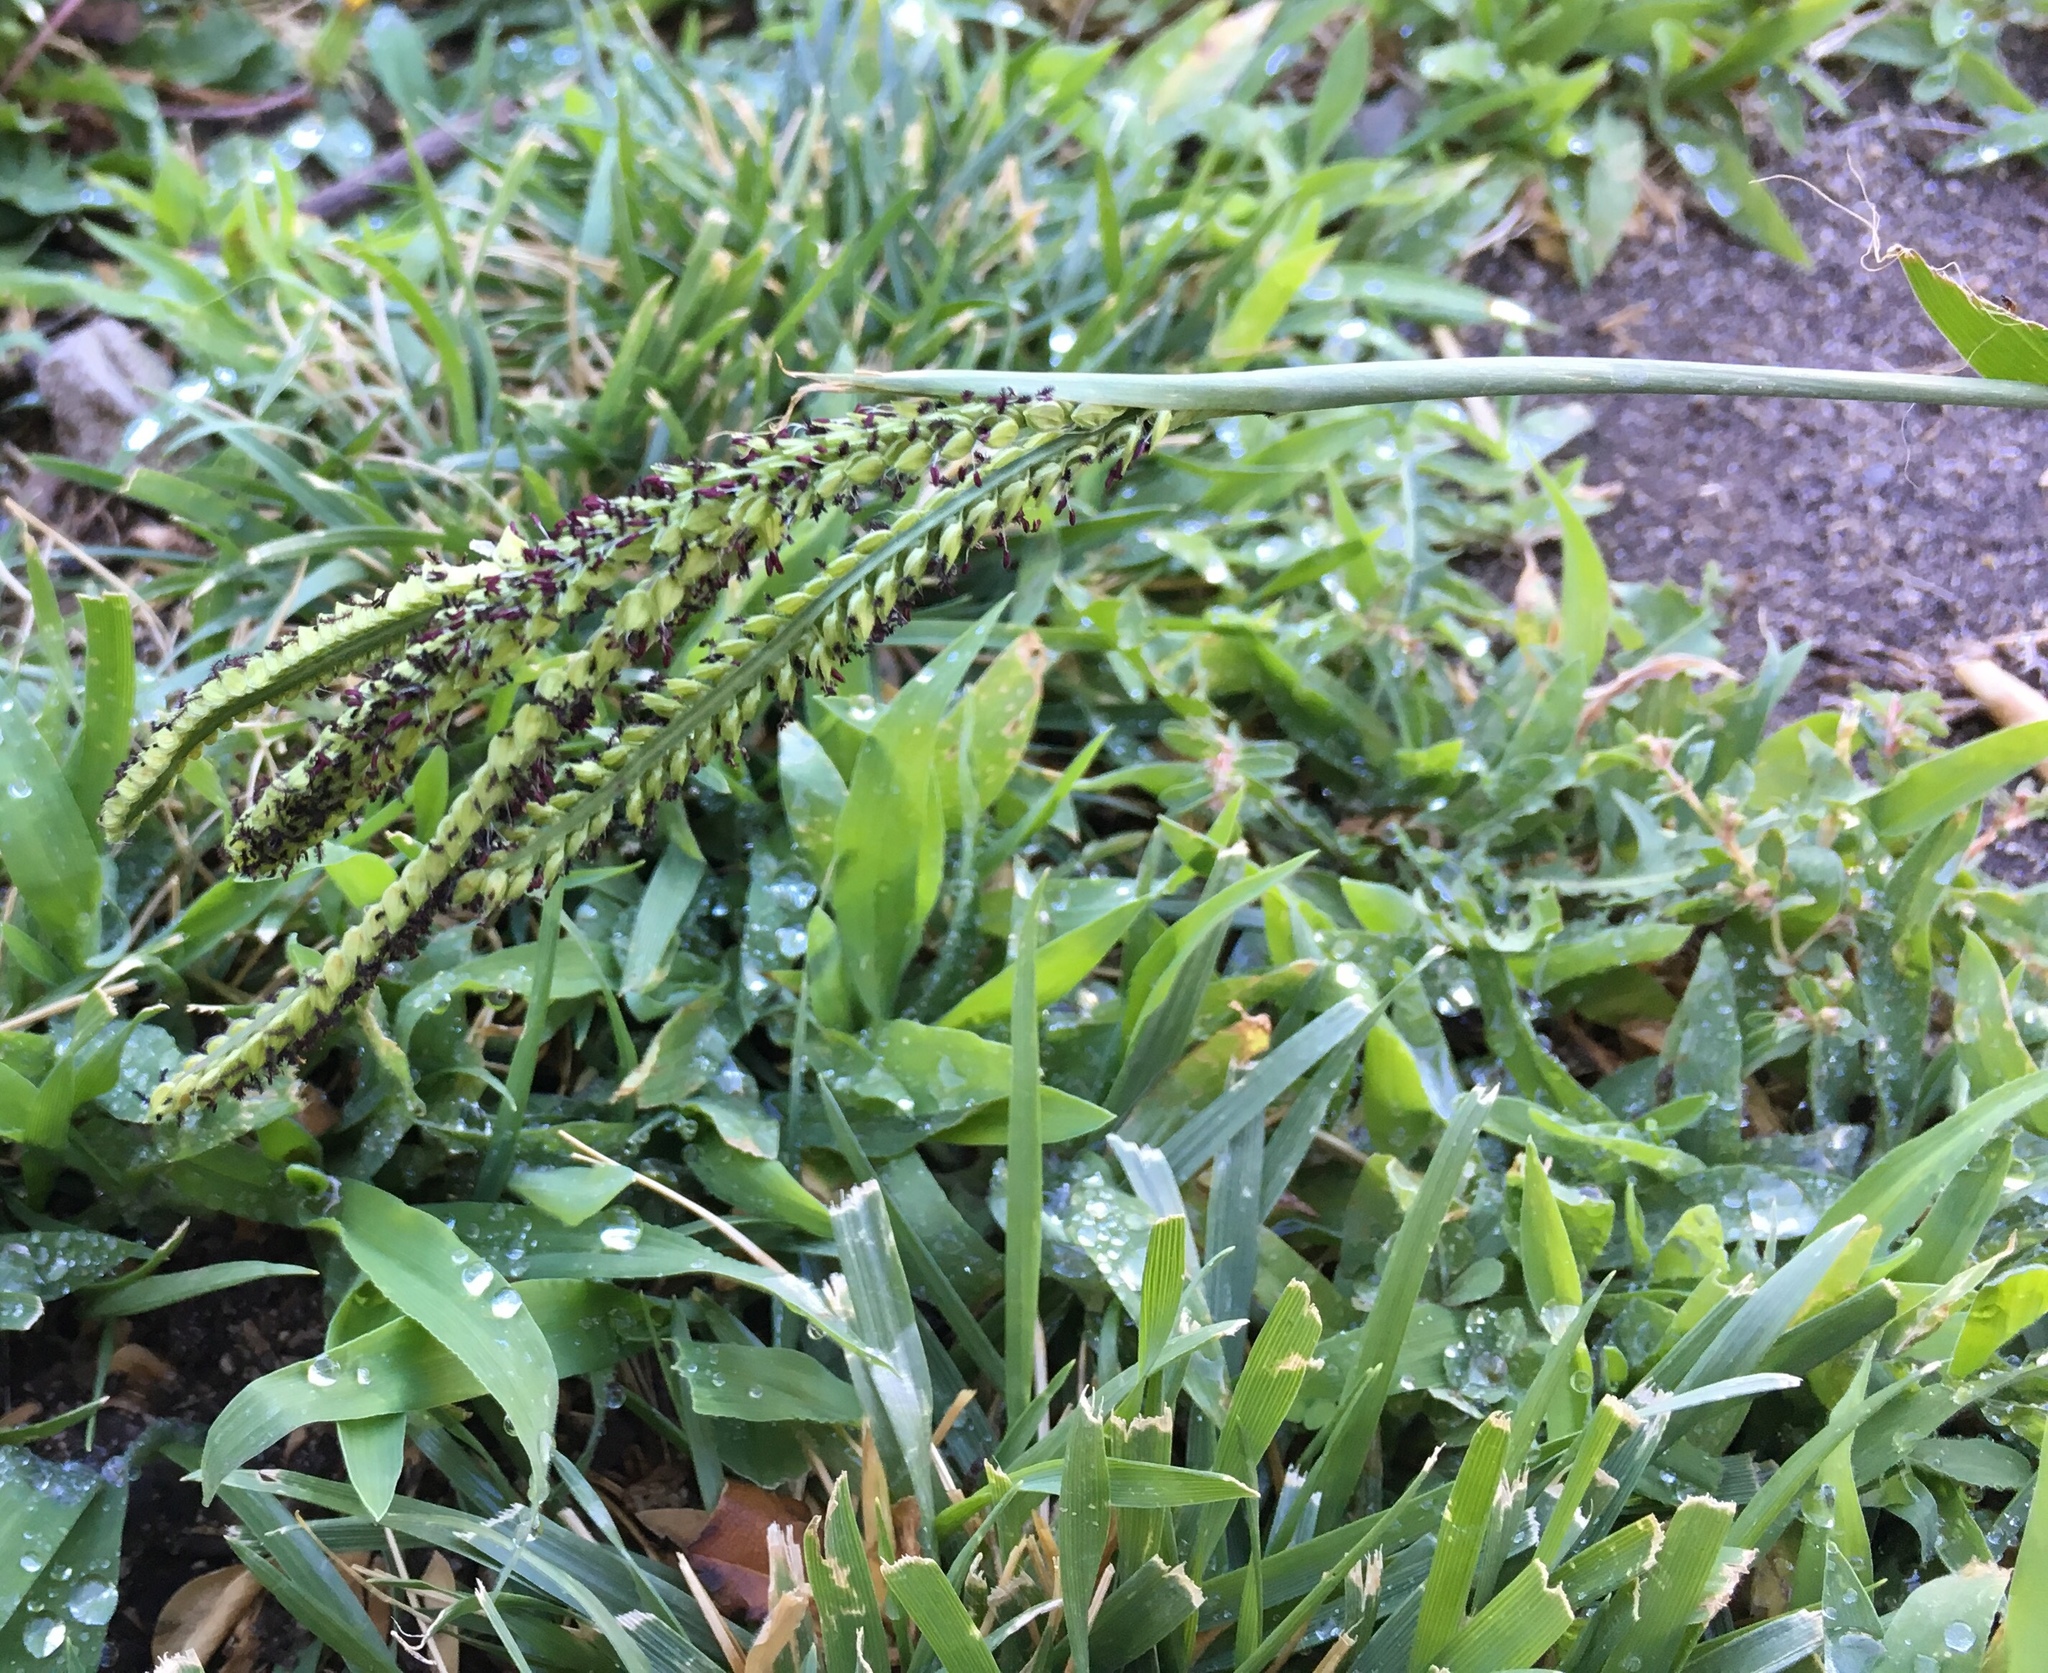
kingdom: Plantae
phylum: Tracheophyta
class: Liliopsida
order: Poales
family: Poaceae
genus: Paspalum
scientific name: Paspalum dilatatum
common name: Dallisgrass
